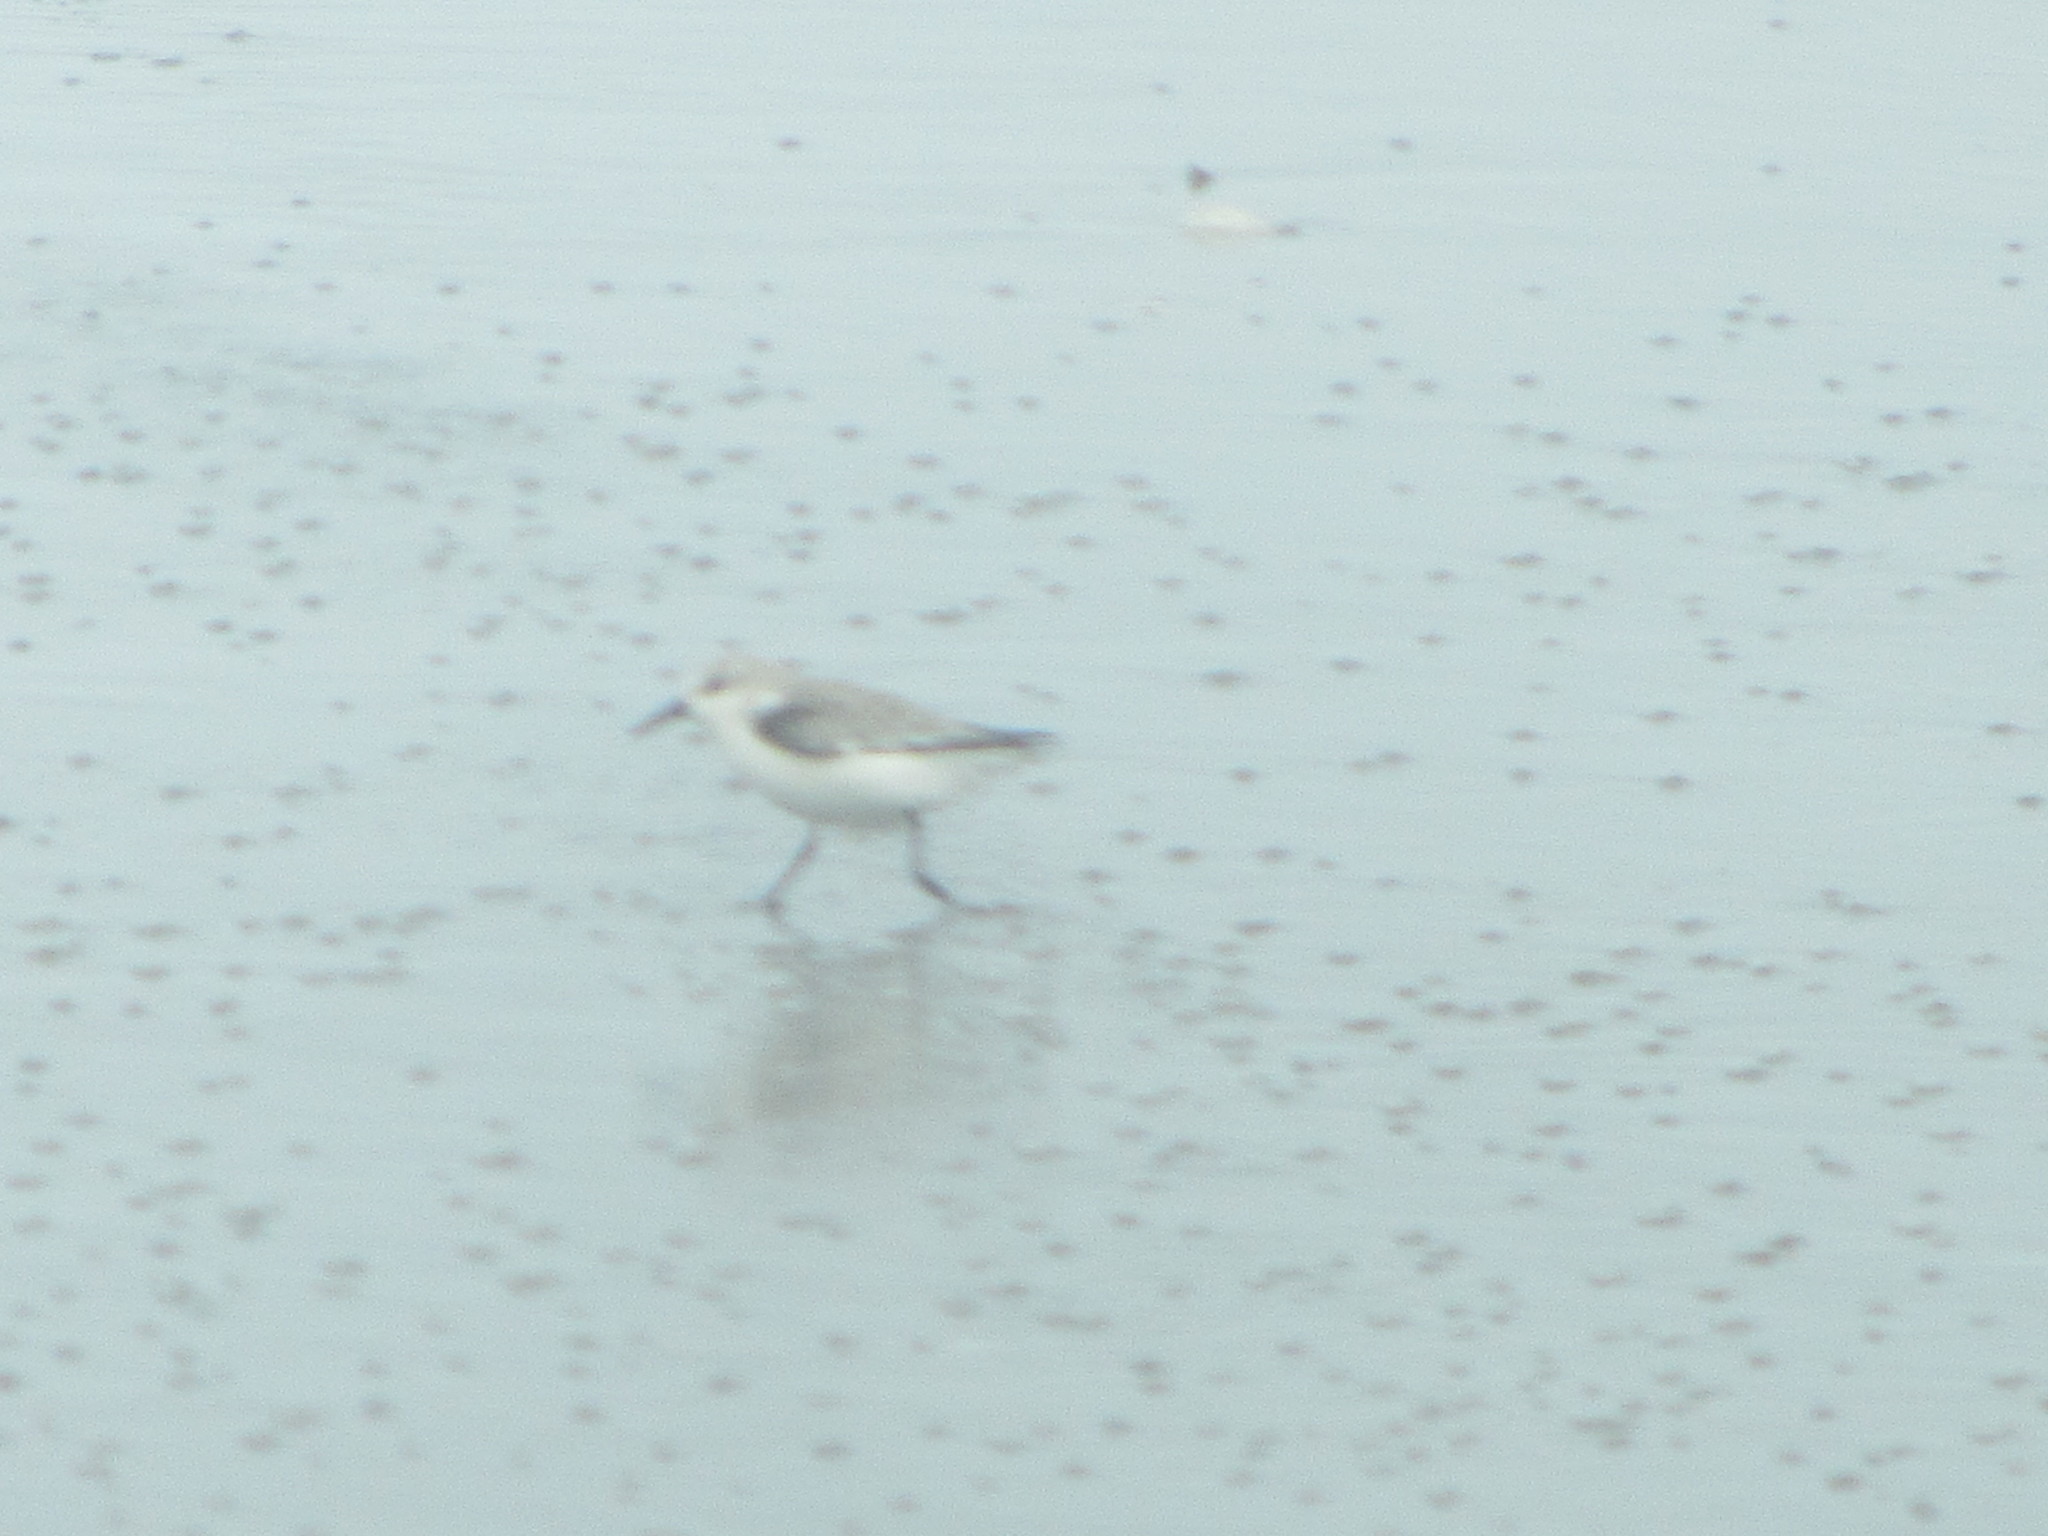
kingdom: Animalia
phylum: Chordata
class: Aves
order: Charadriiformes
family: Scolopacidae
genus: Calidris
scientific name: Calidris alba
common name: Sanderling
